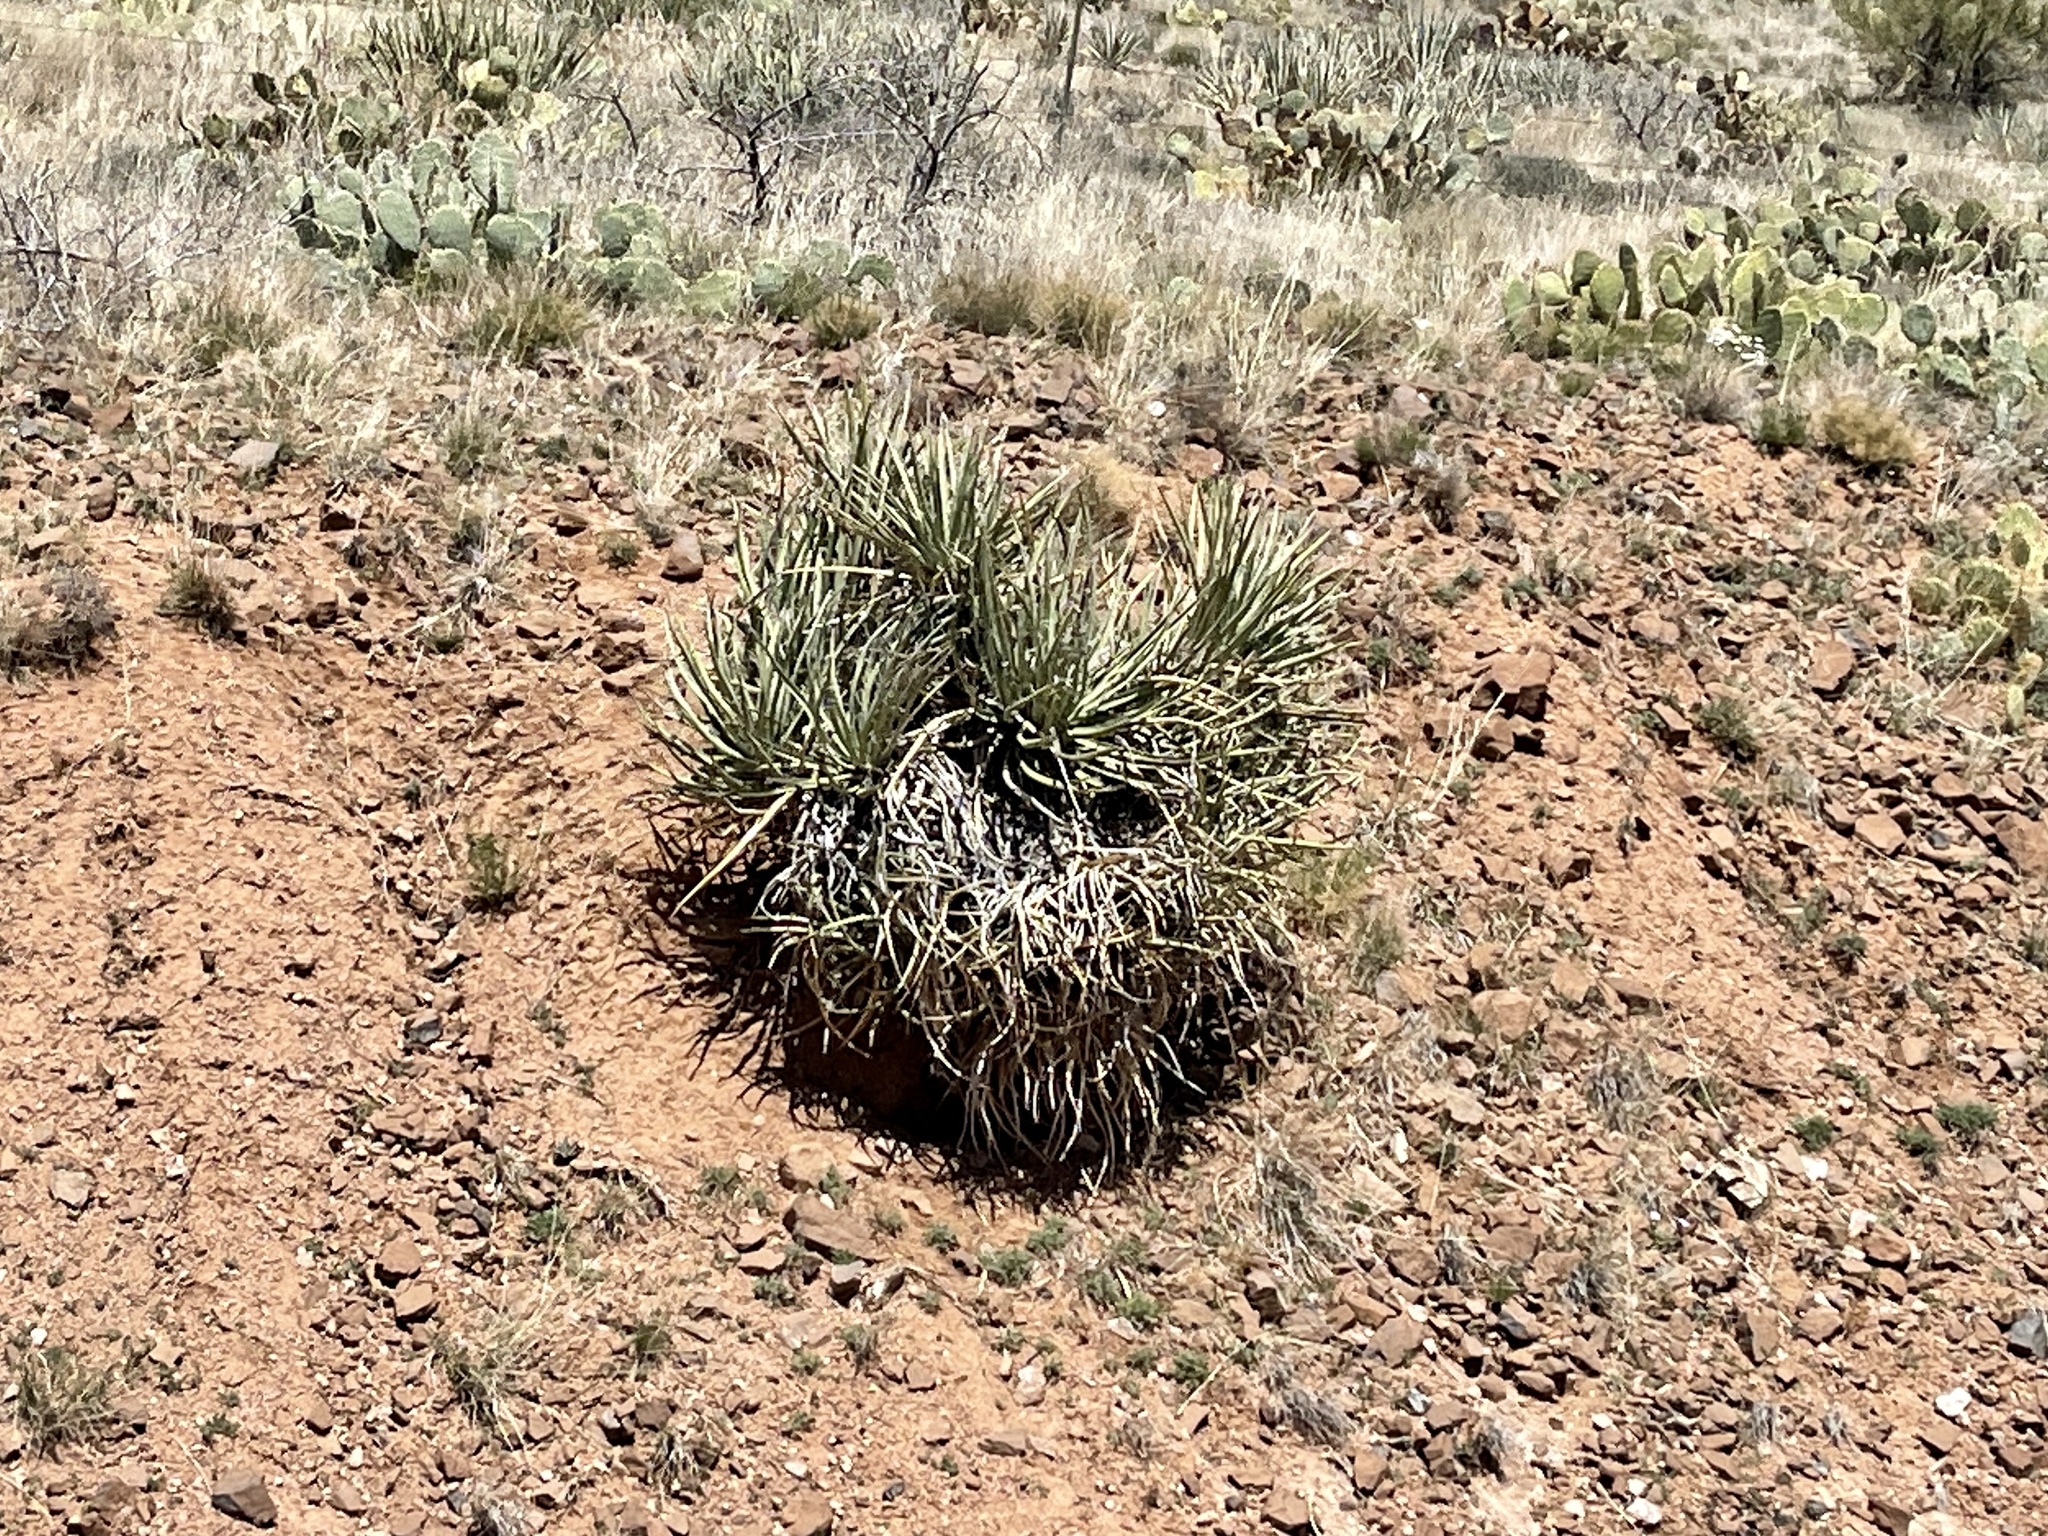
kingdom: Plantae
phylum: Tracheophyta
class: Liliopsida
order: Asparagales
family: Asparagaceae
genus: Yucca
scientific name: Yucca baccata
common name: Banana yucca
